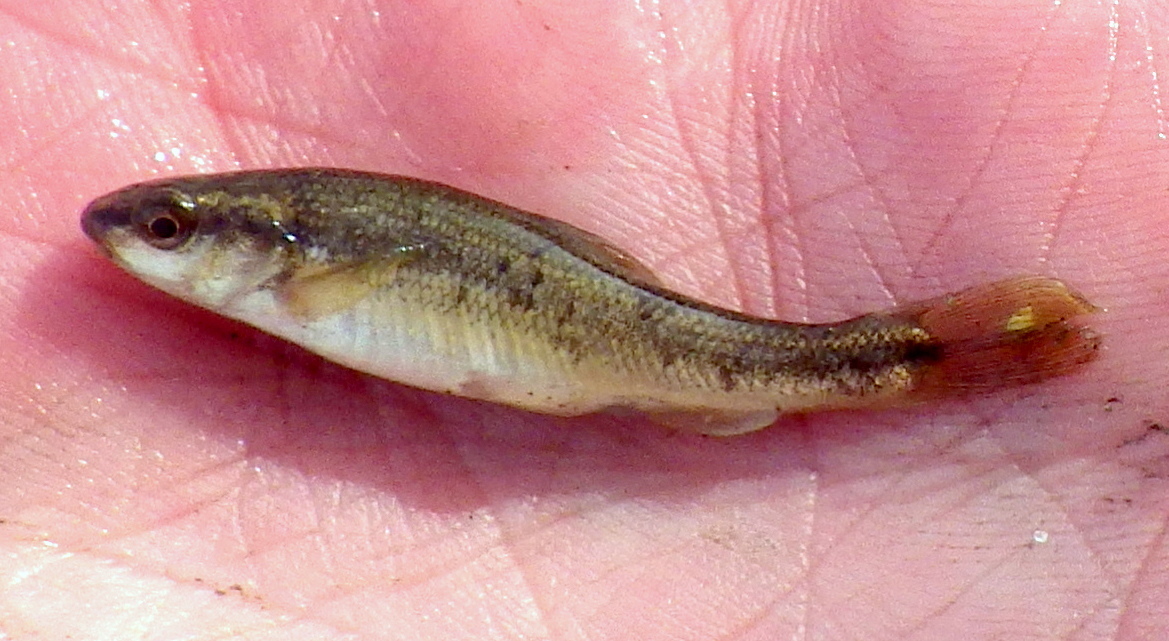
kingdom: Animalia
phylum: Chordata
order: Cypriniformes
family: Cyprinidae
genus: Campostoma
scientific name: Campostoma anomalum
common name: Central stoneroller
